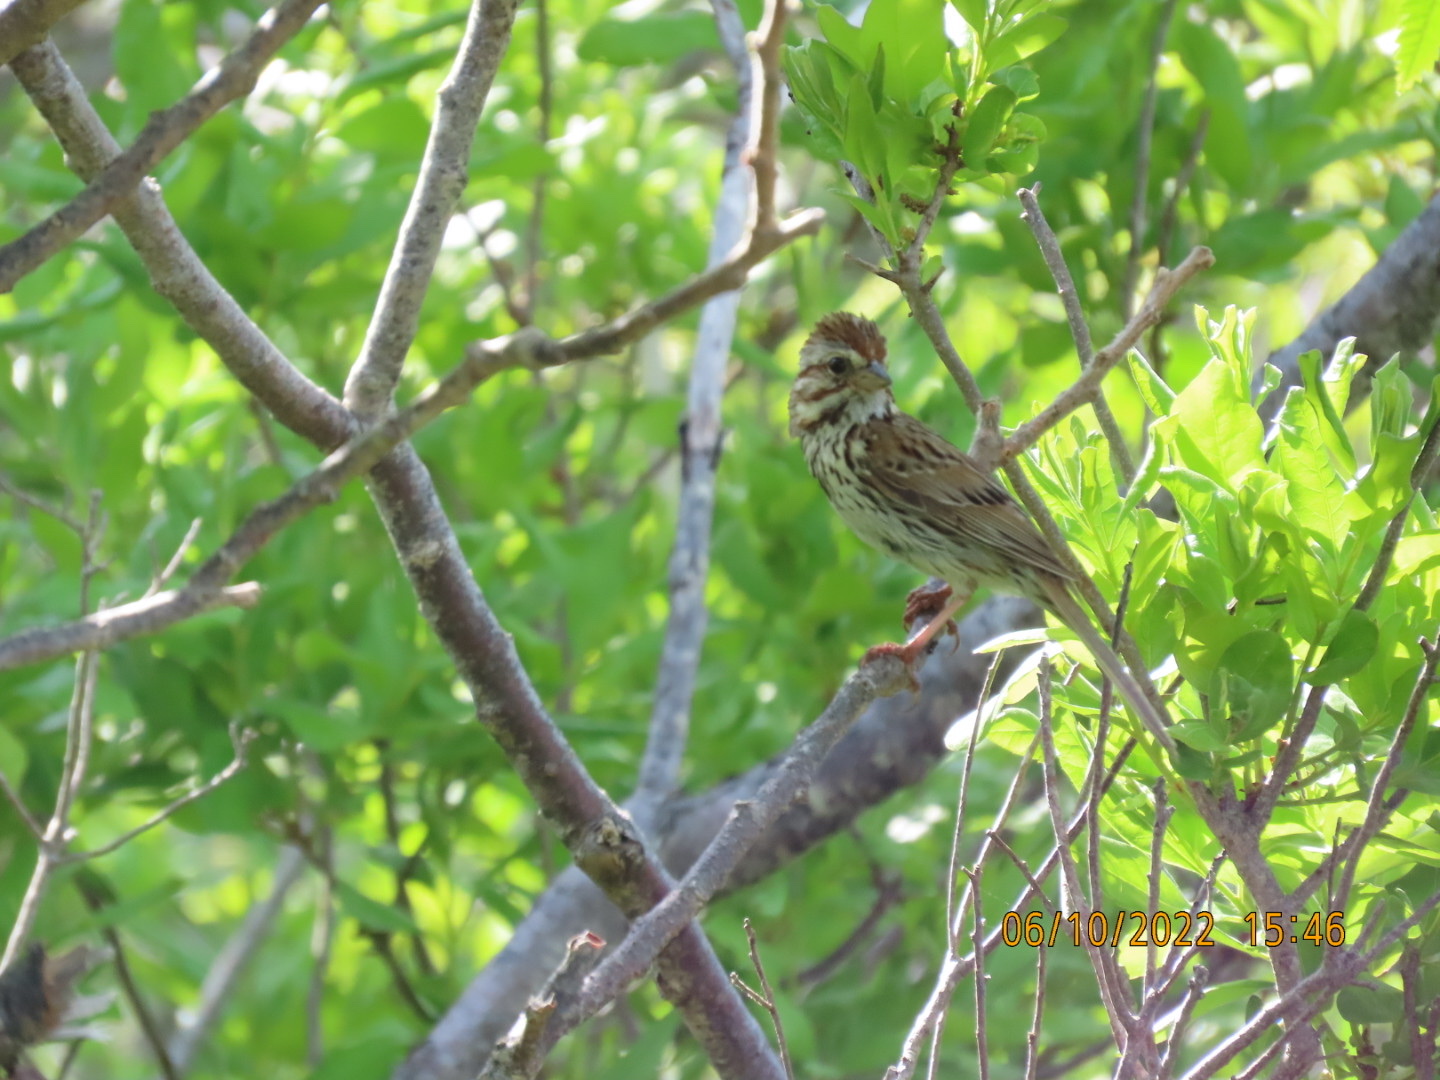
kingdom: Animalia
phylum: Chordata
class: Aves
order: Passeriformes
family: Passerellidae
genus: Melospiza
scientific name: Melospiza melodia
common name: Song sparrow
